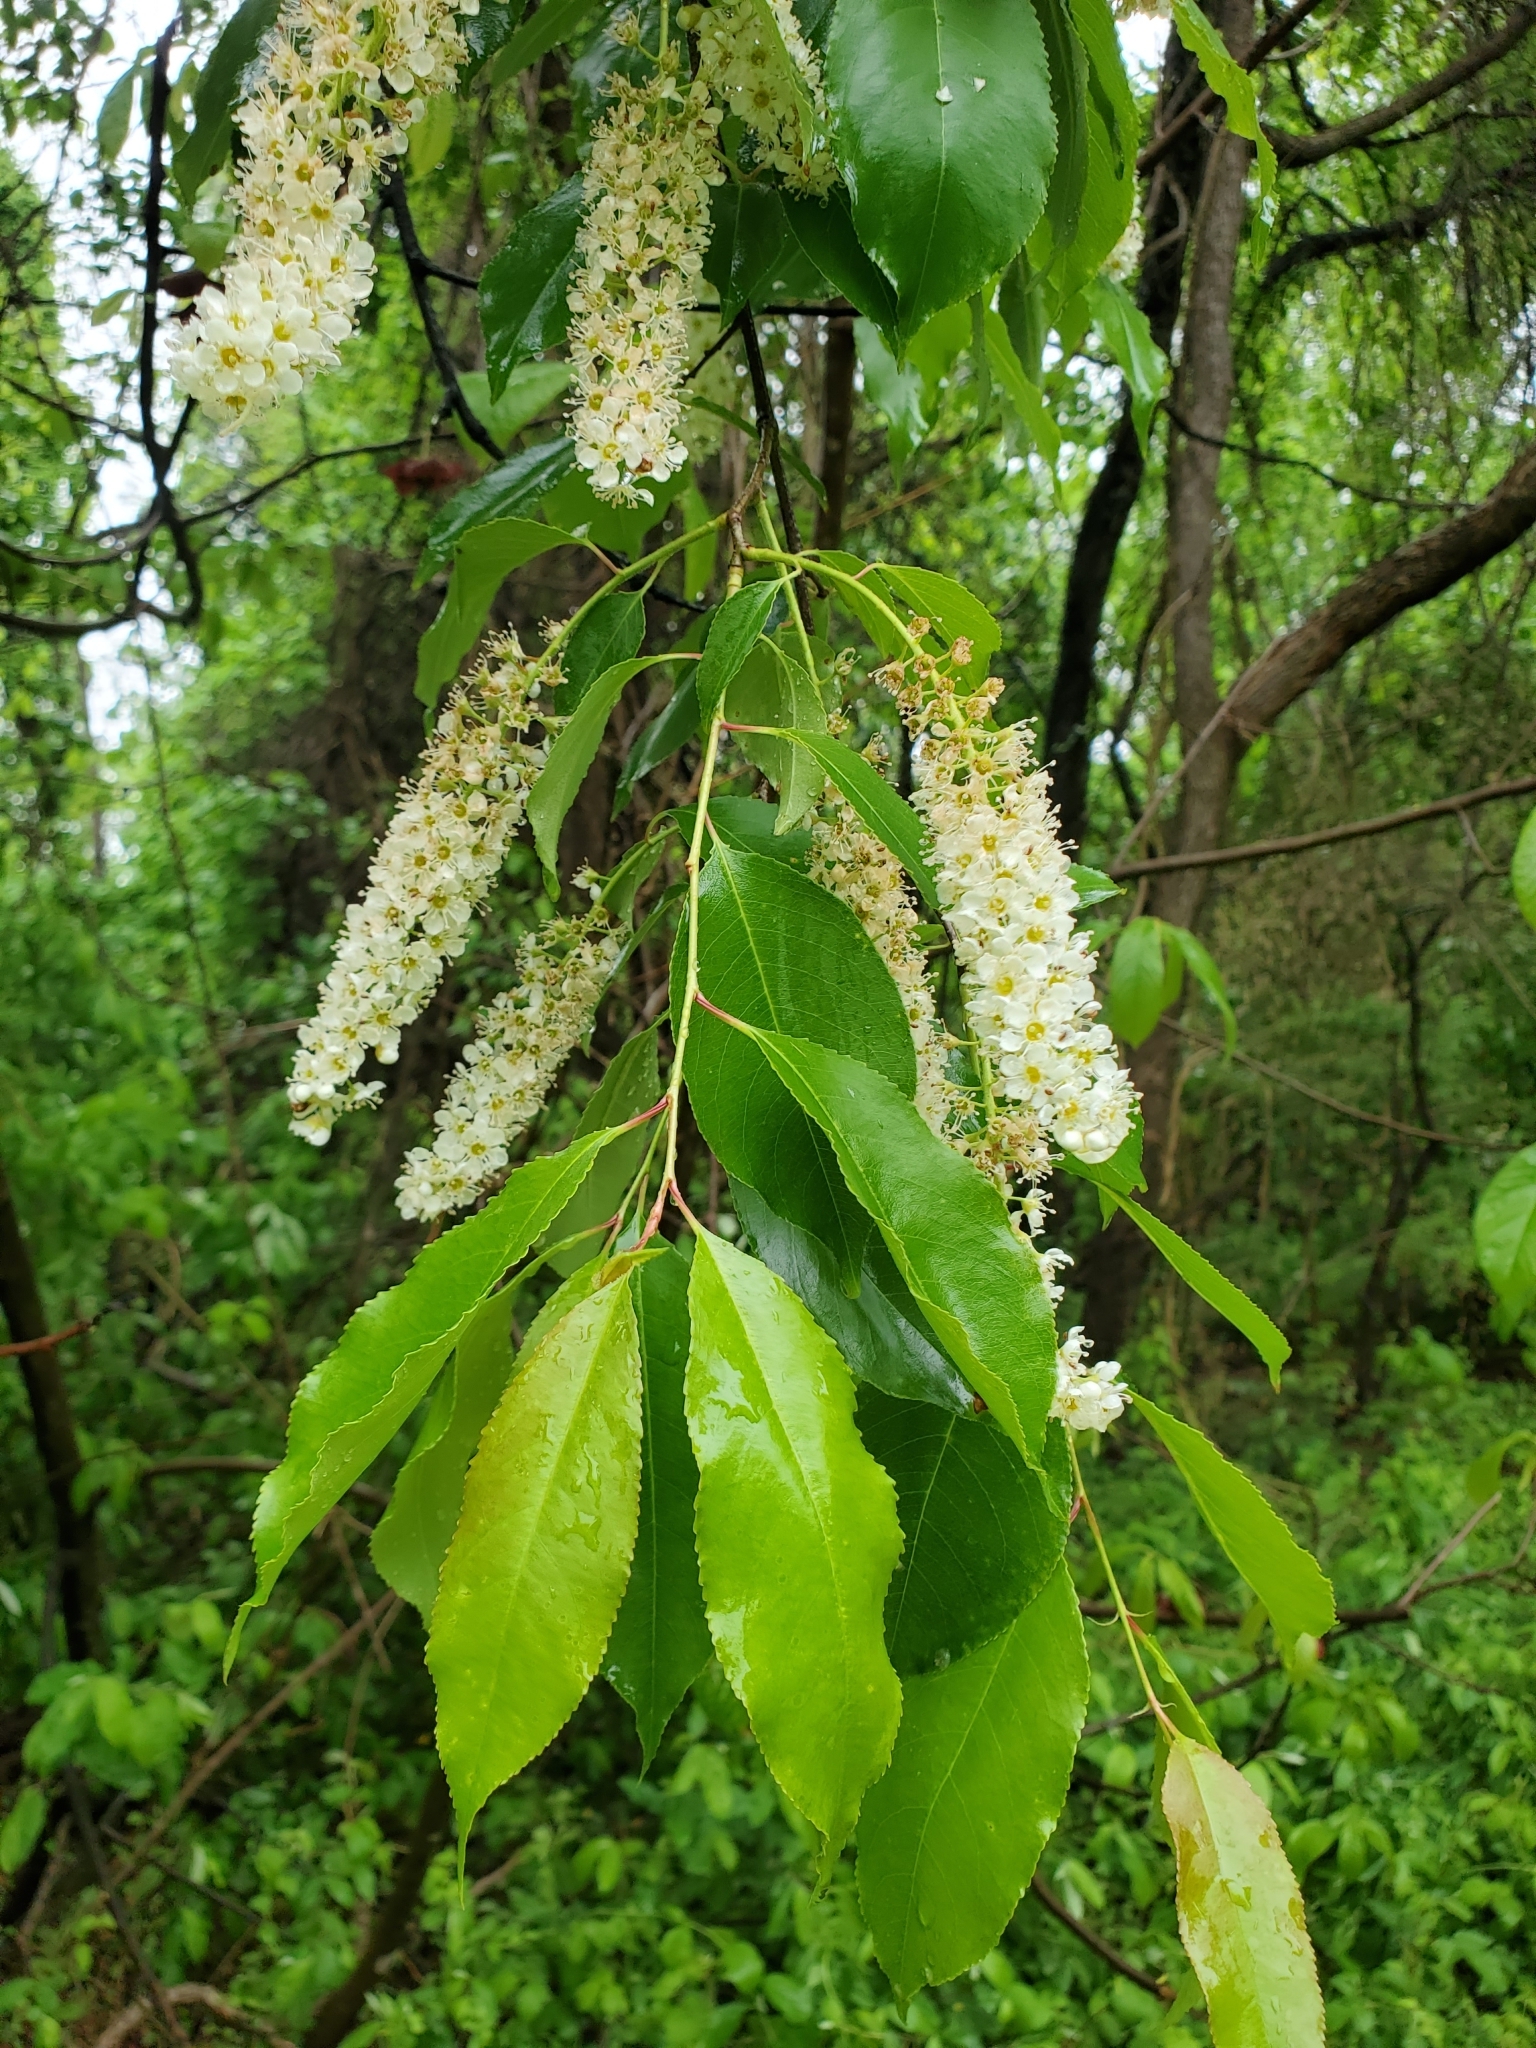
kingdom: Plantae
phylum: Tracheophyta
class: Magnoliopsida
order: Rosales
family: Rosaceae
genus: Prunus
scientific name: Prunus serotina
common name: Black cherry
